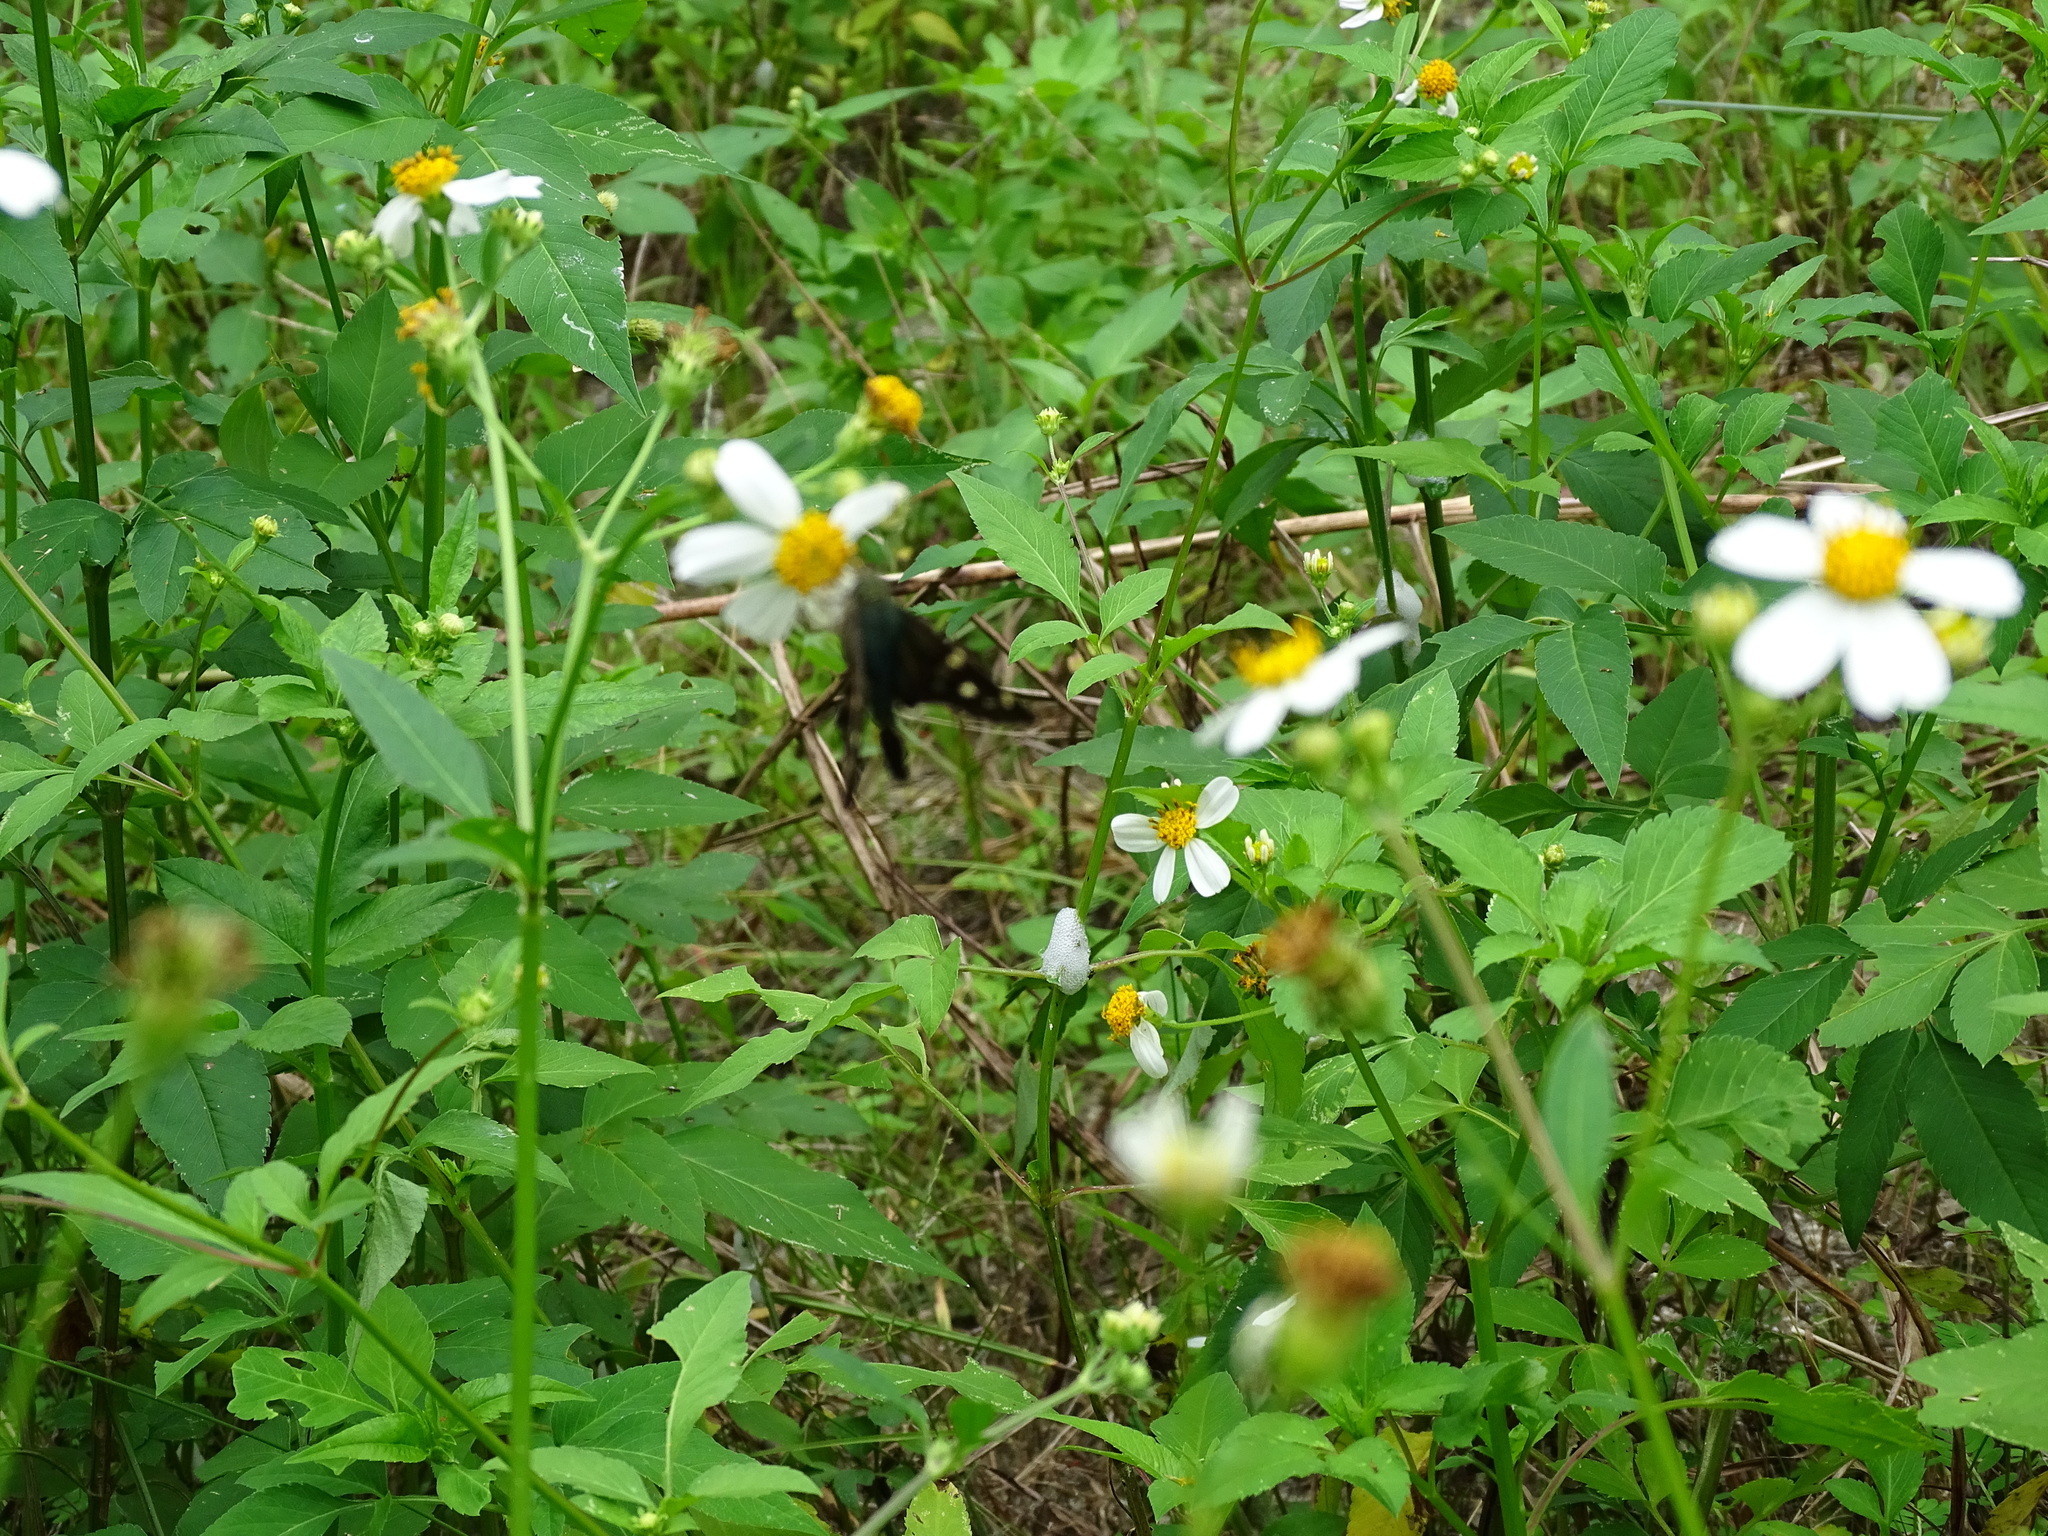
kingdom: Animalia
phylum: Arthropoda
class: Insecta
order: Lepidoptera
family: Hesperiidae
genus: Urbanus
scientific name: Urbanus proteus
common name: Long-tailed skipper
